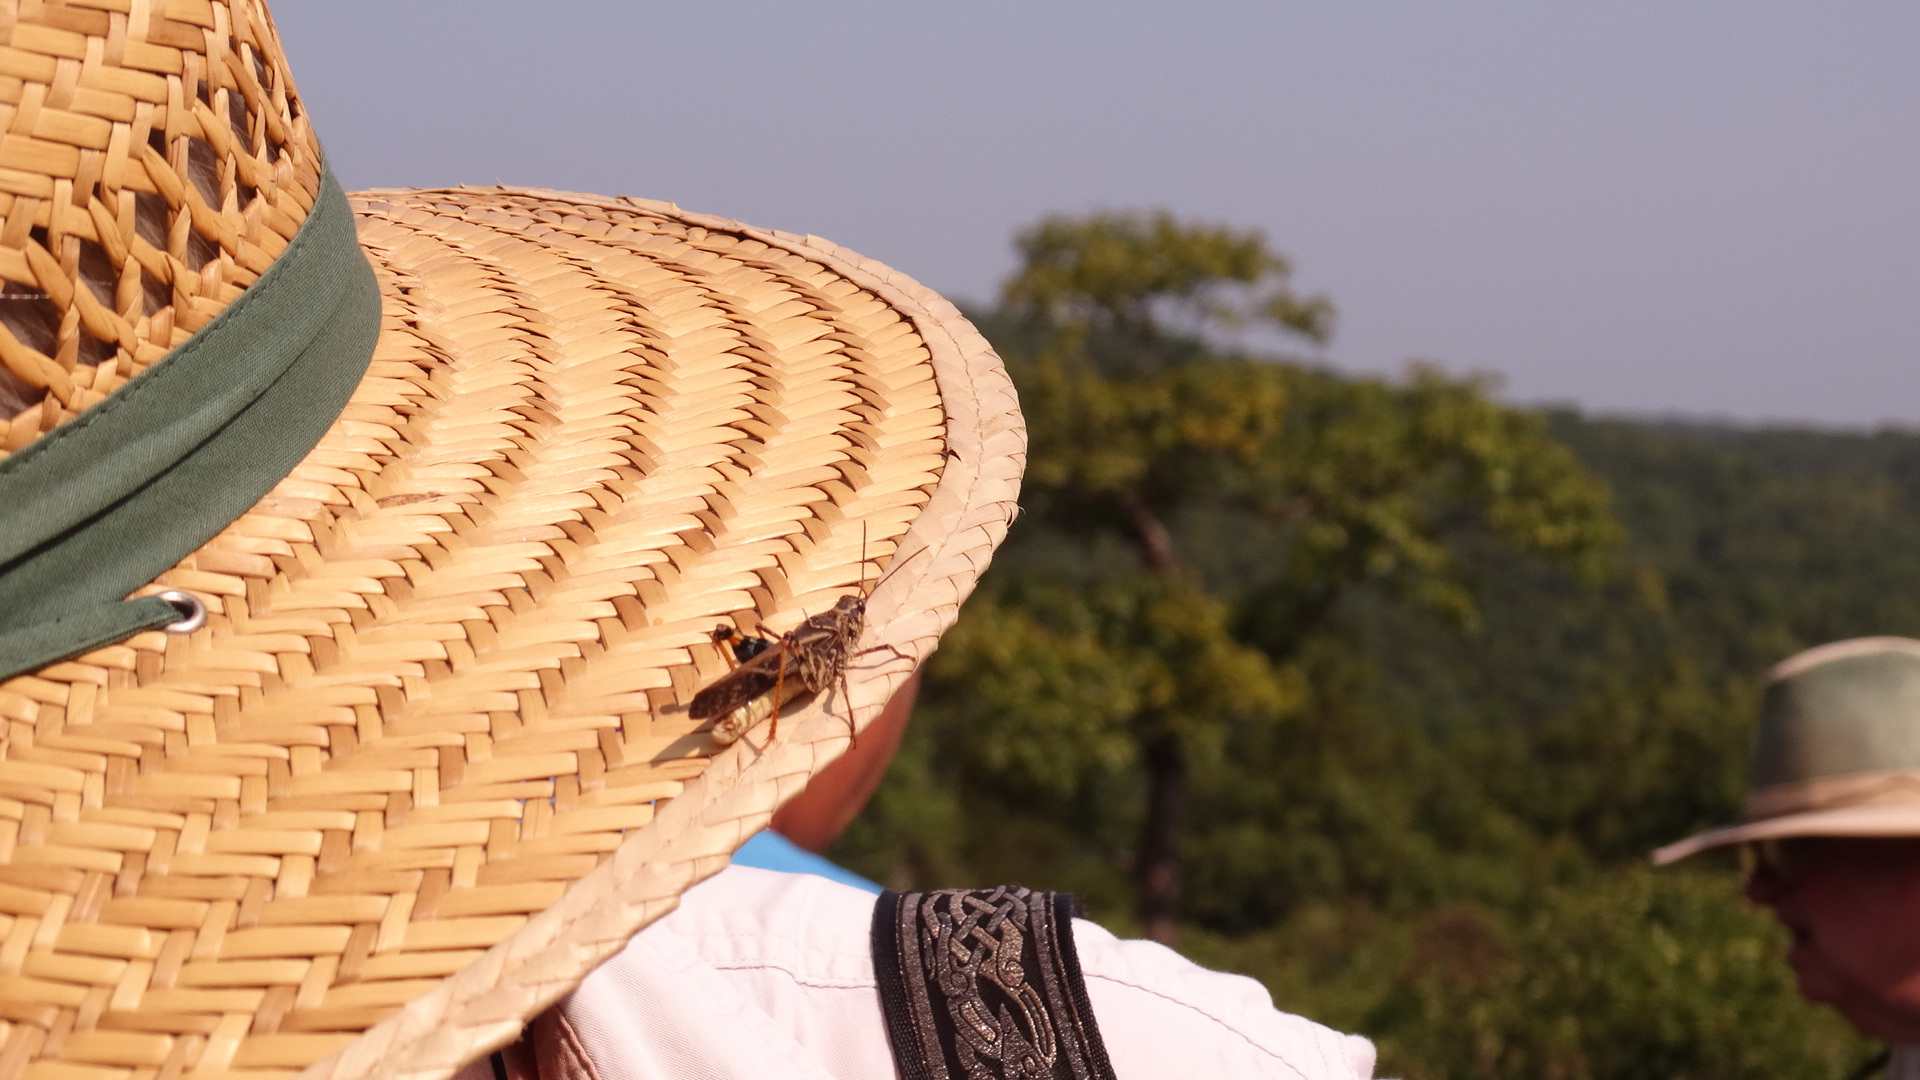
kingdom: Animalia
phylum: Arthropoda
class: Insecta
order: Orthoptera
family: Acrididae
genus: Pardalophora
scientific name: Pardalophora phoenicoptera
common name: Orange-winged grasshopper
